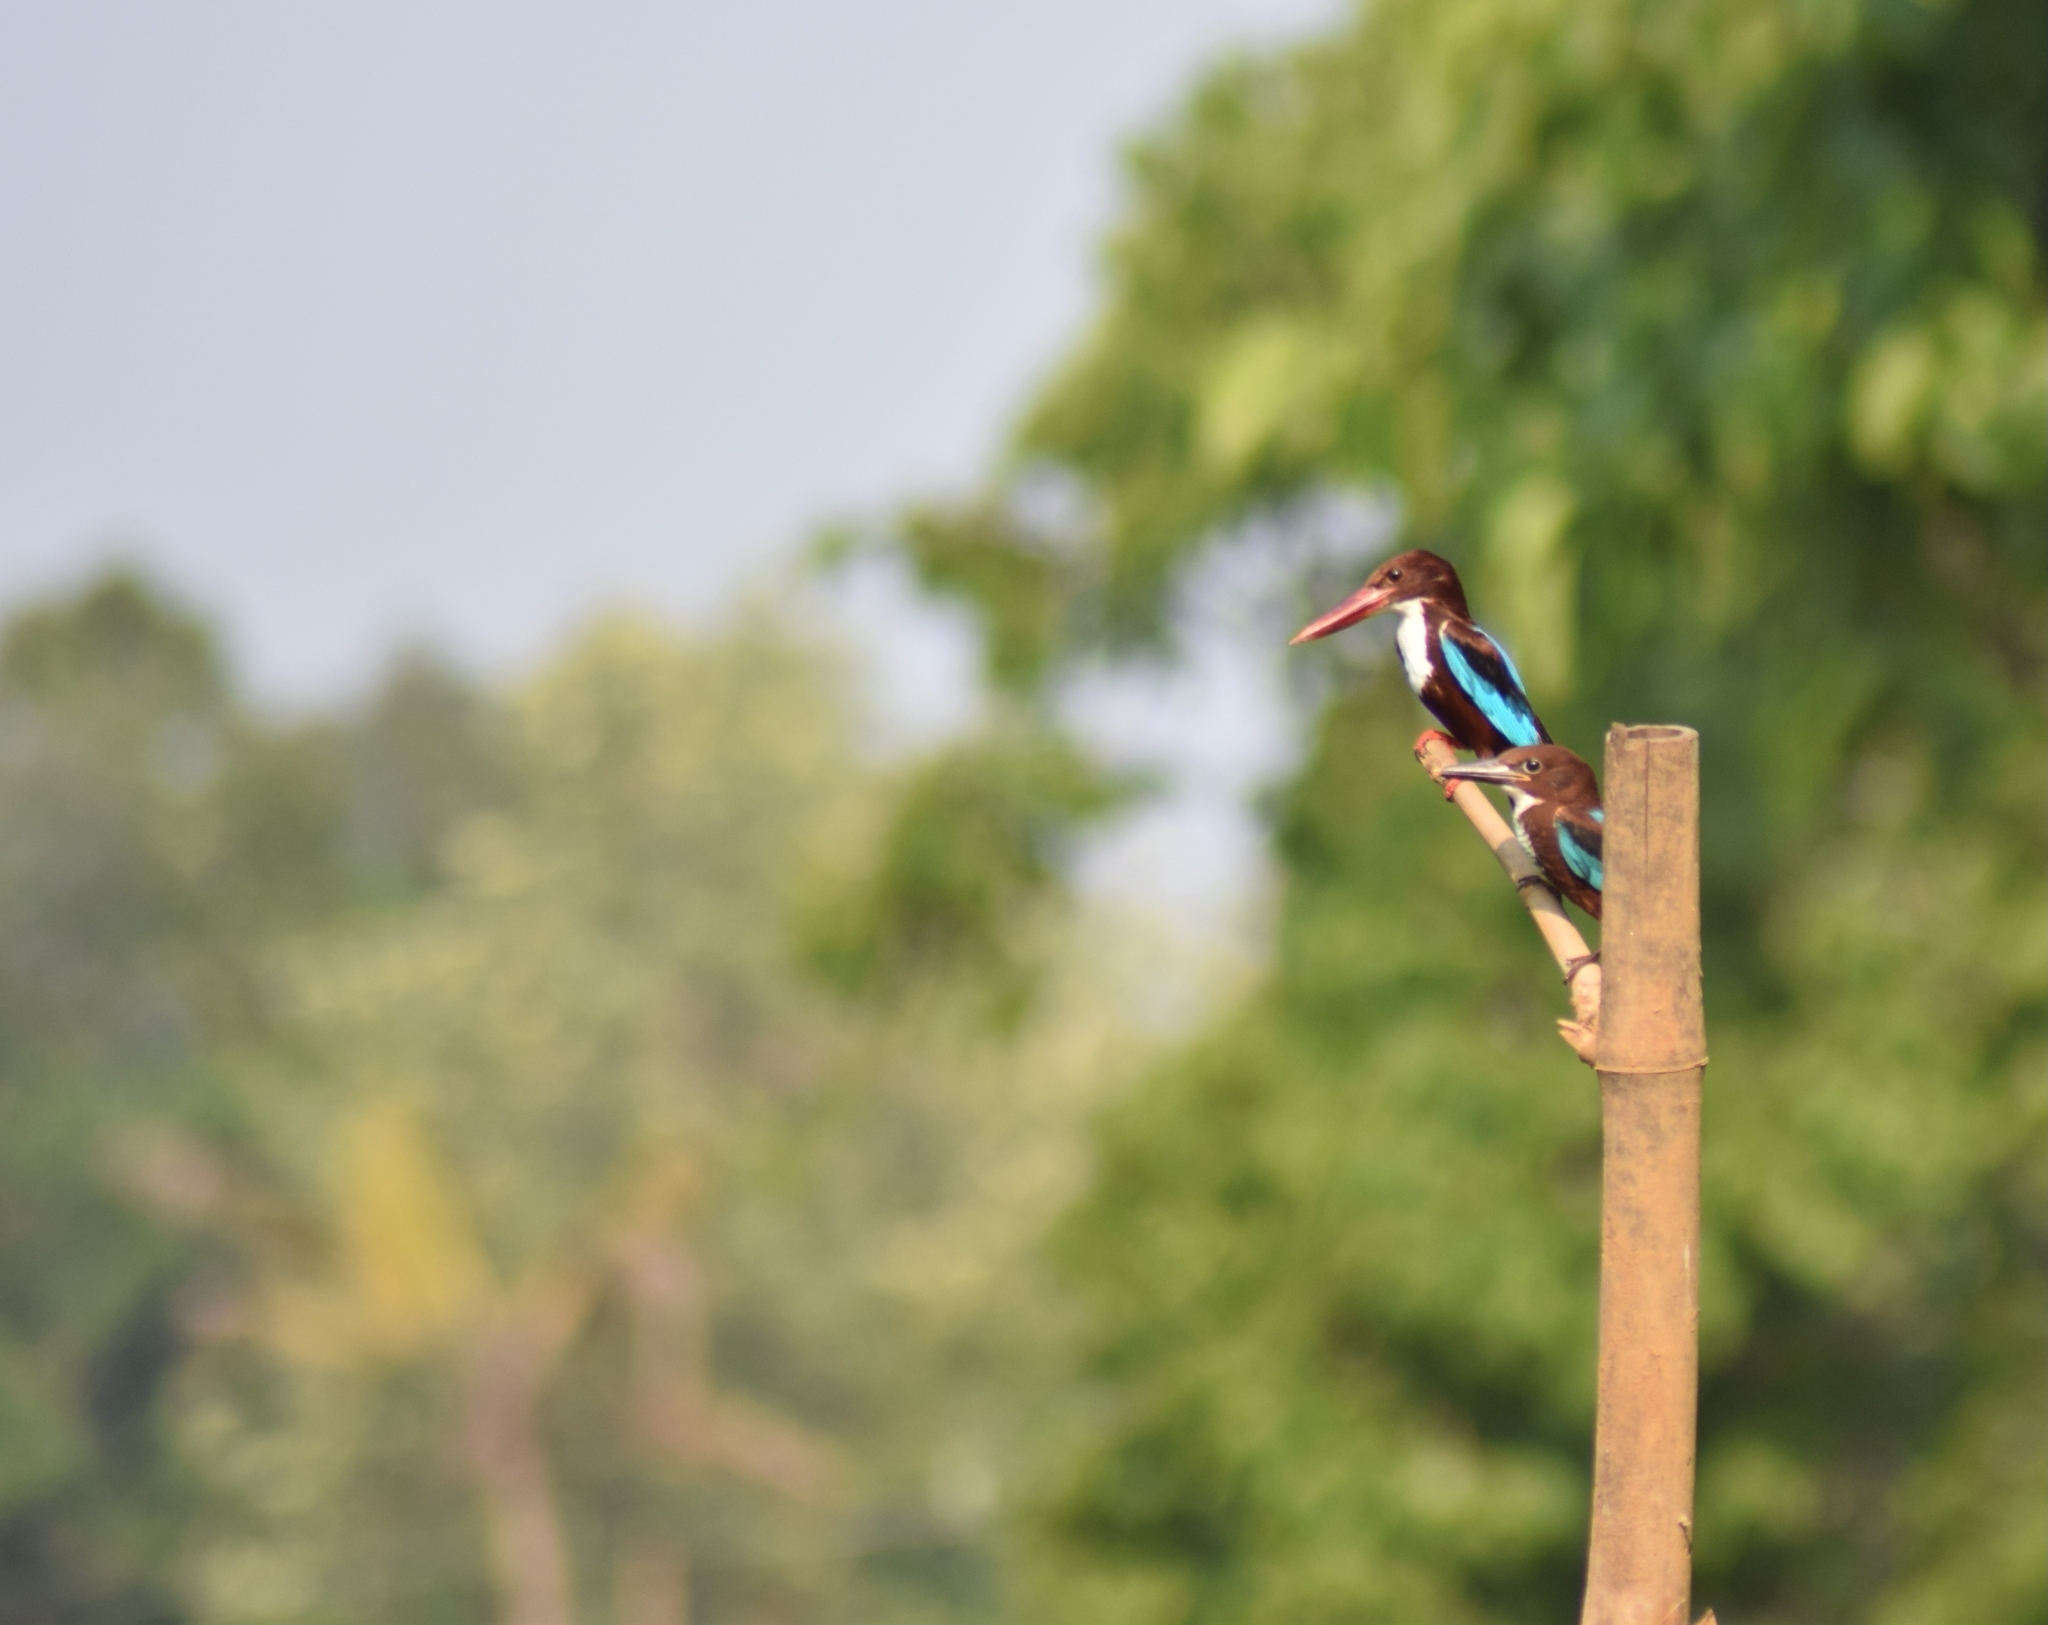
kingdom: Animalia
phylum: Chordata
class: Aves
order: Coraciiformes
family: Alcedinidae
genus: Halcyon
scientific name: Halcyon smyrnensis
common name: White-throated kingfisher
